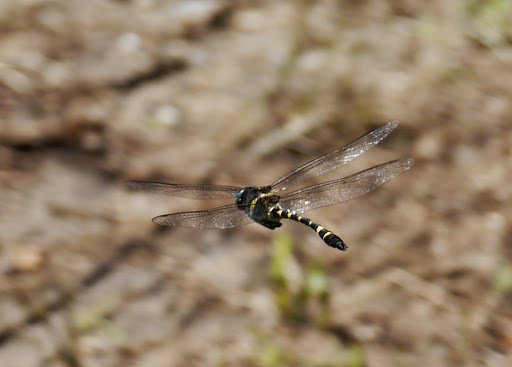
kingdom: Animalia
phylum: Arthropoda
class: Insecta
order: Odonata
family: Macromiidae
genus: Macromia
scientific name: Macromia illinoiensis
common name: Swift river cruiser
